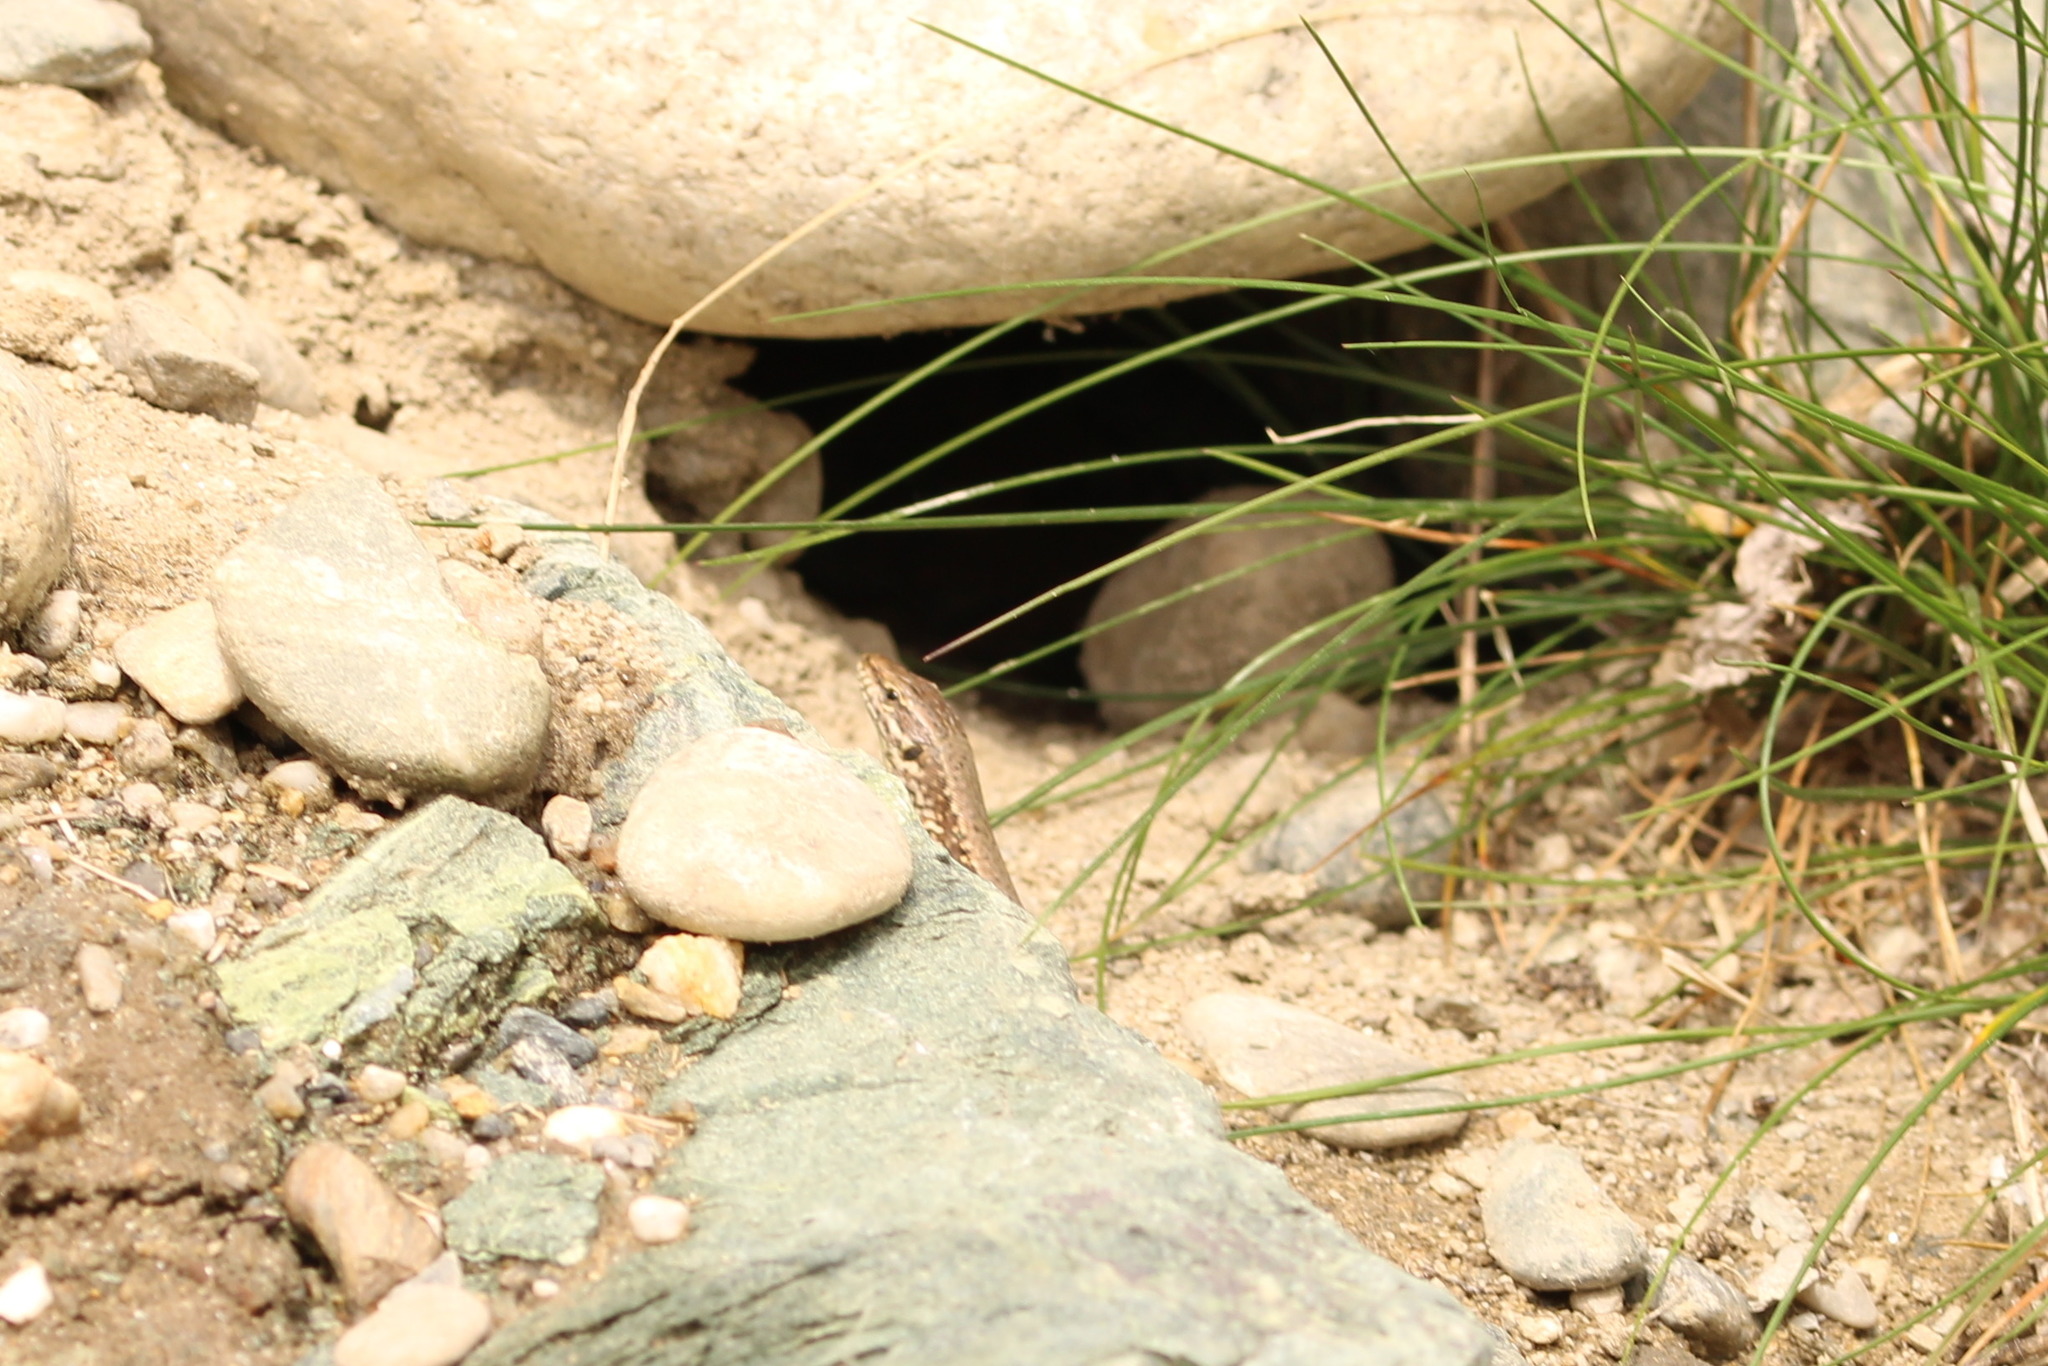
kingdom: Animalia
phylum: Chordata
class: Squamata
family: Lacertidae
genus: Podarcis
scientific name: Podarcis muralis
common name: Common wall lizard
